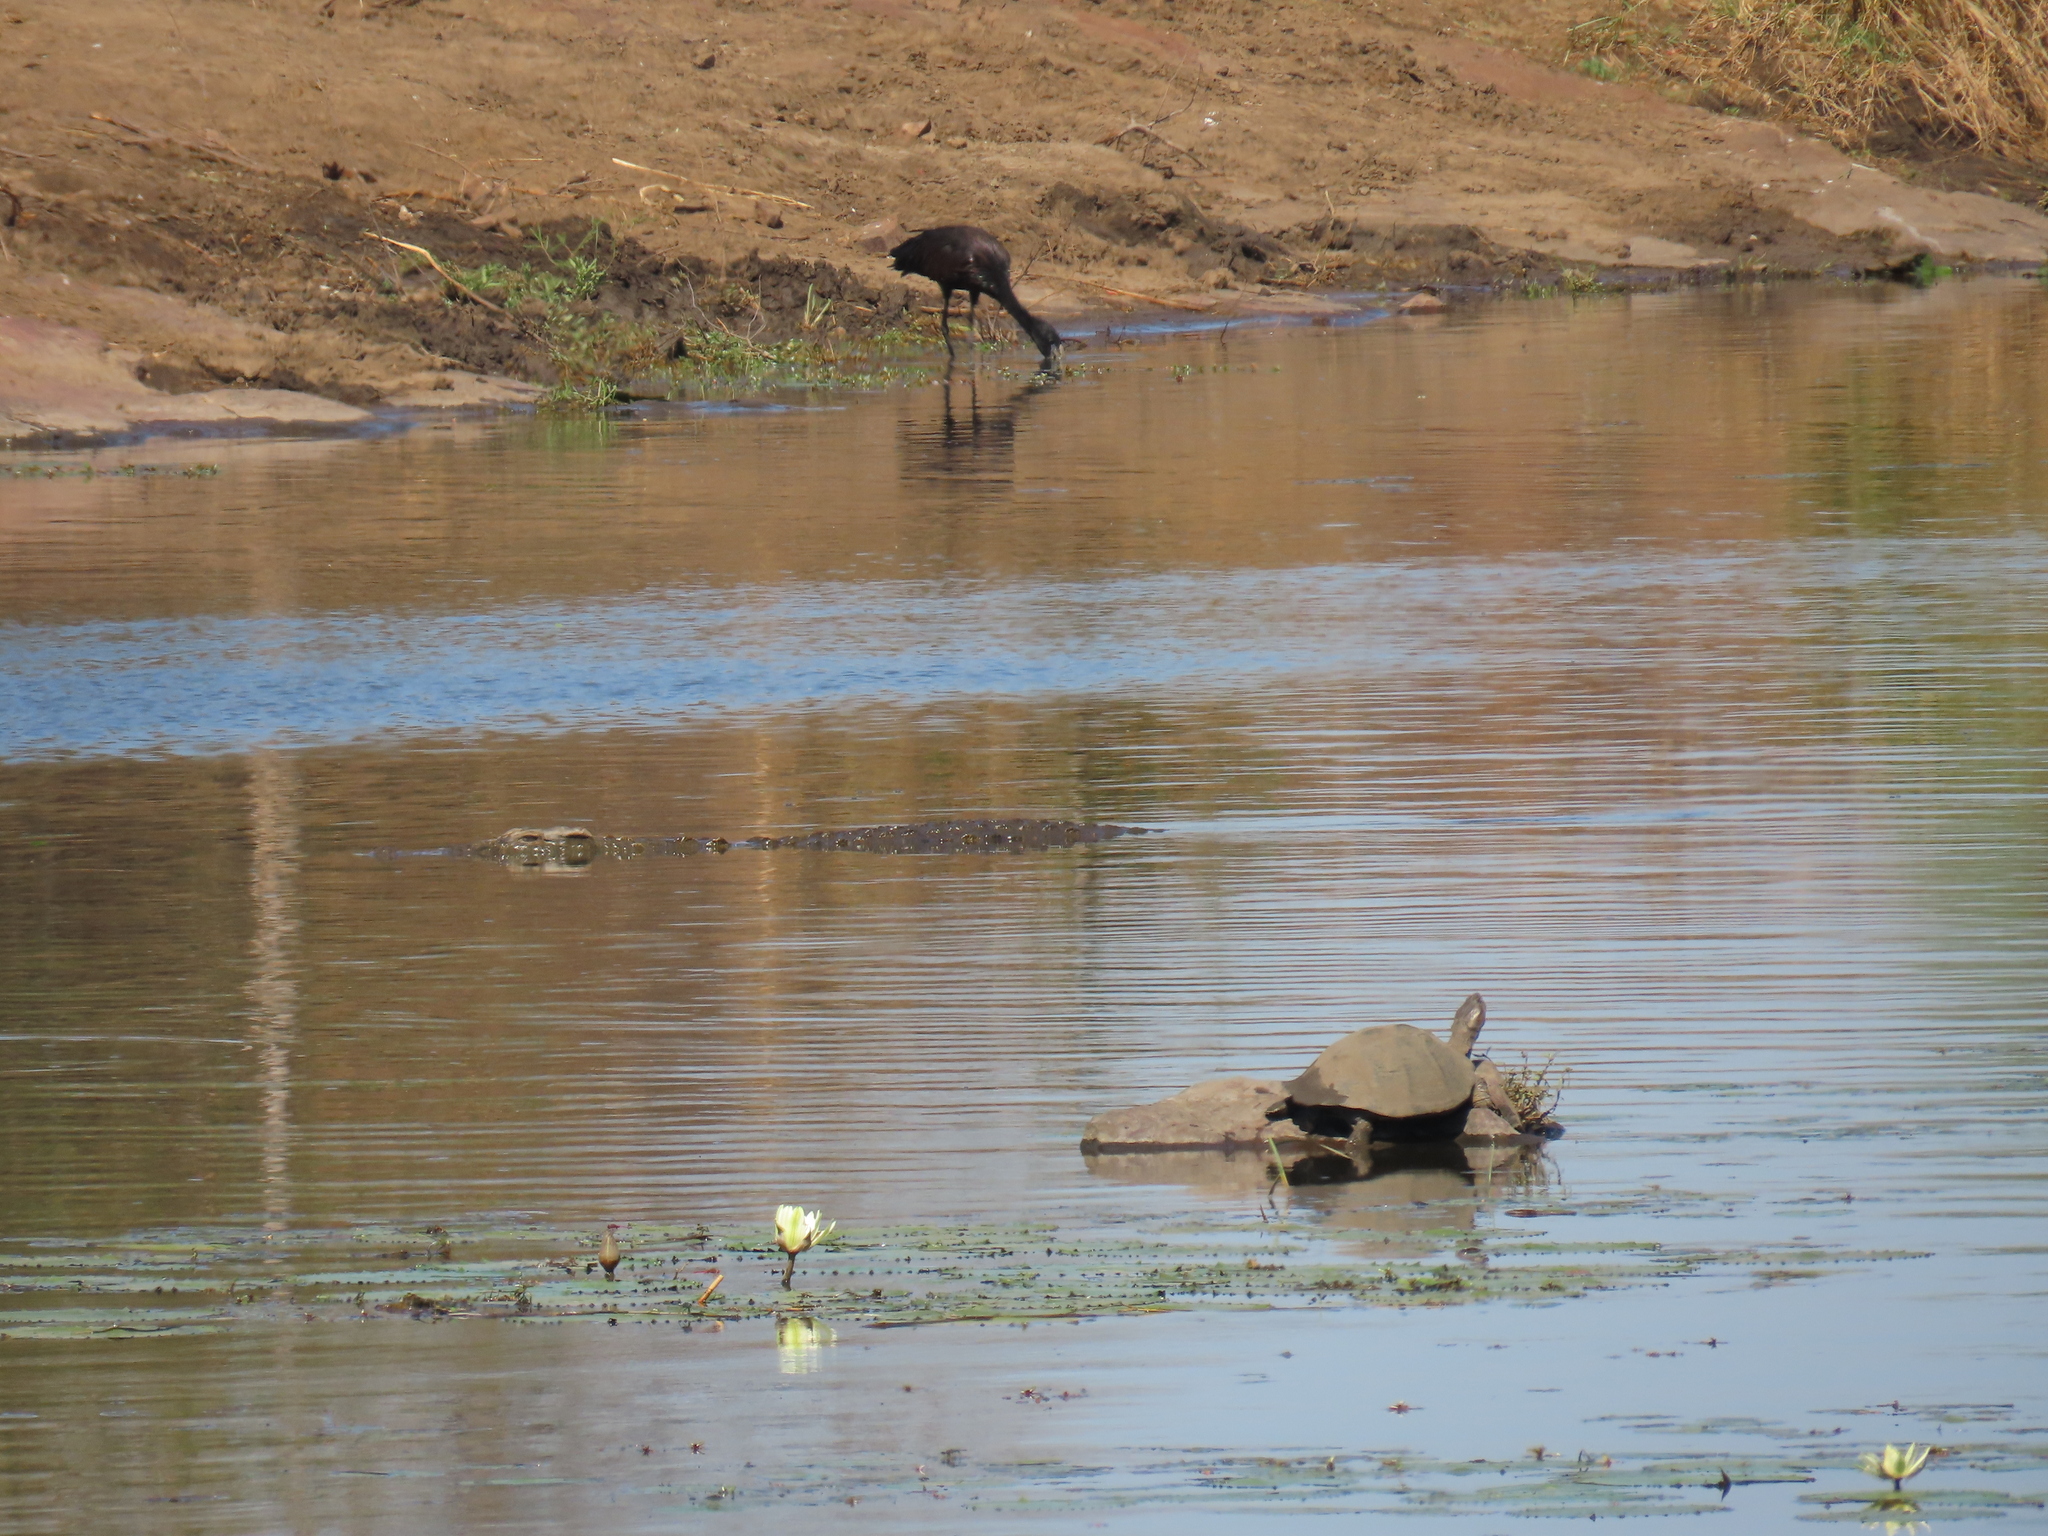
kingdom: Animalia
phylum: Chordata
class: Aves
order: Ciconiiformes
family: Ciconiidae
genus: Anastomus
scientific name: Anastomus lamelligerus
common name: African openbill
